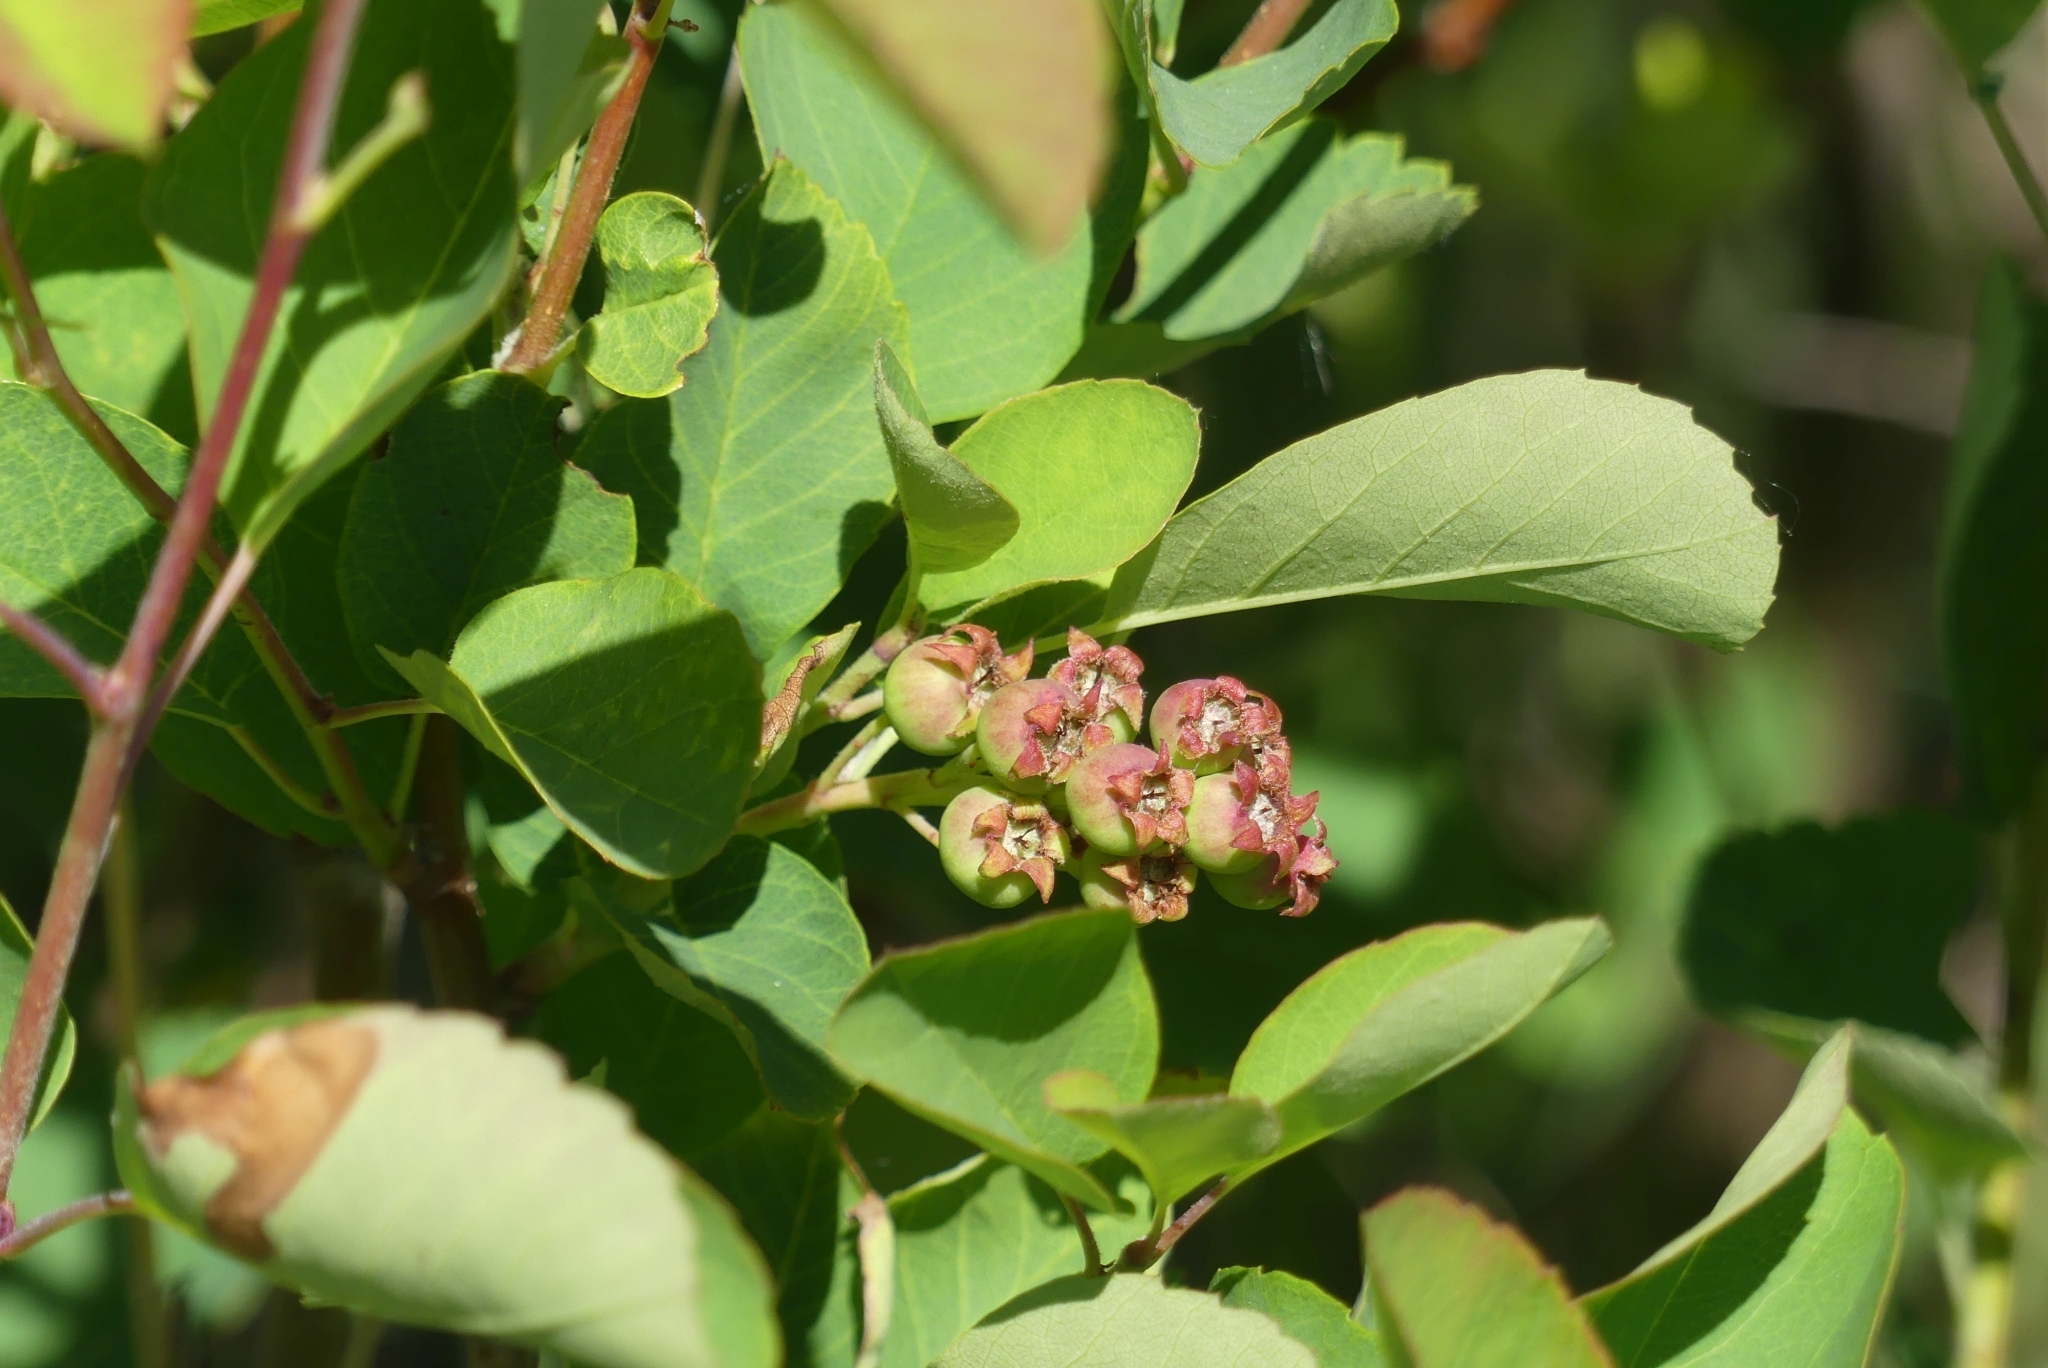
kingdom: Plantae
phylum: Tracheophyta
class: Magnoliopsida
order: Rosales
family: Rosaceae
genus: Amelanchier
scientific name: Amelanchier alnifolia
